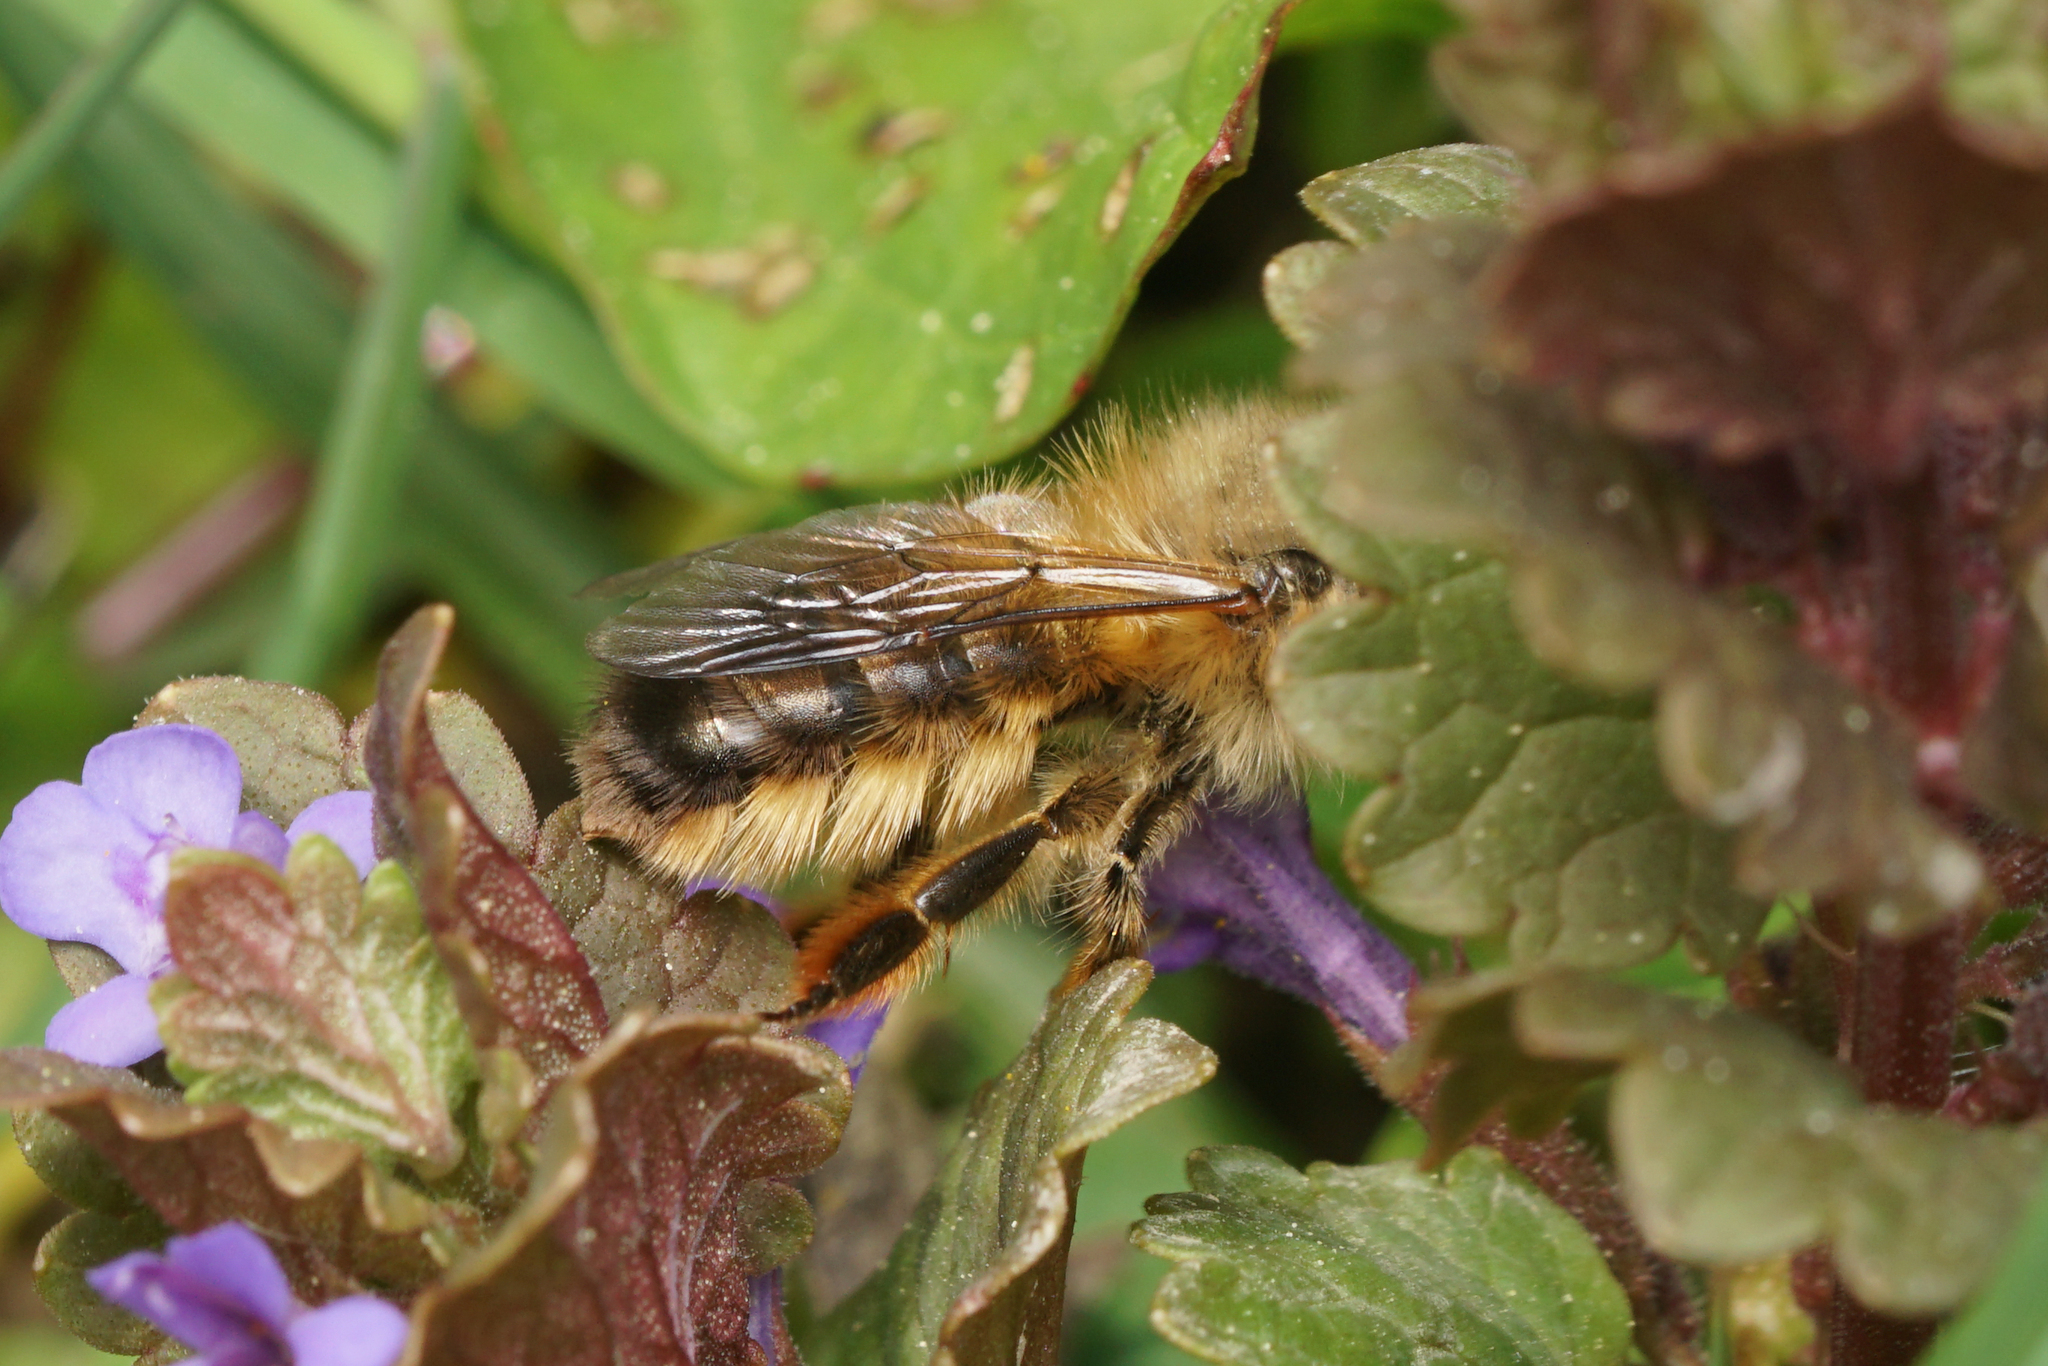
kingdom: Animalia
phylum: Arthropoda
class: Insecta
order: Hymenoptera
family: Megachilidae
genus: Osmia
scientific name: Osmia cornifrons
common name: Horn-faced bee
